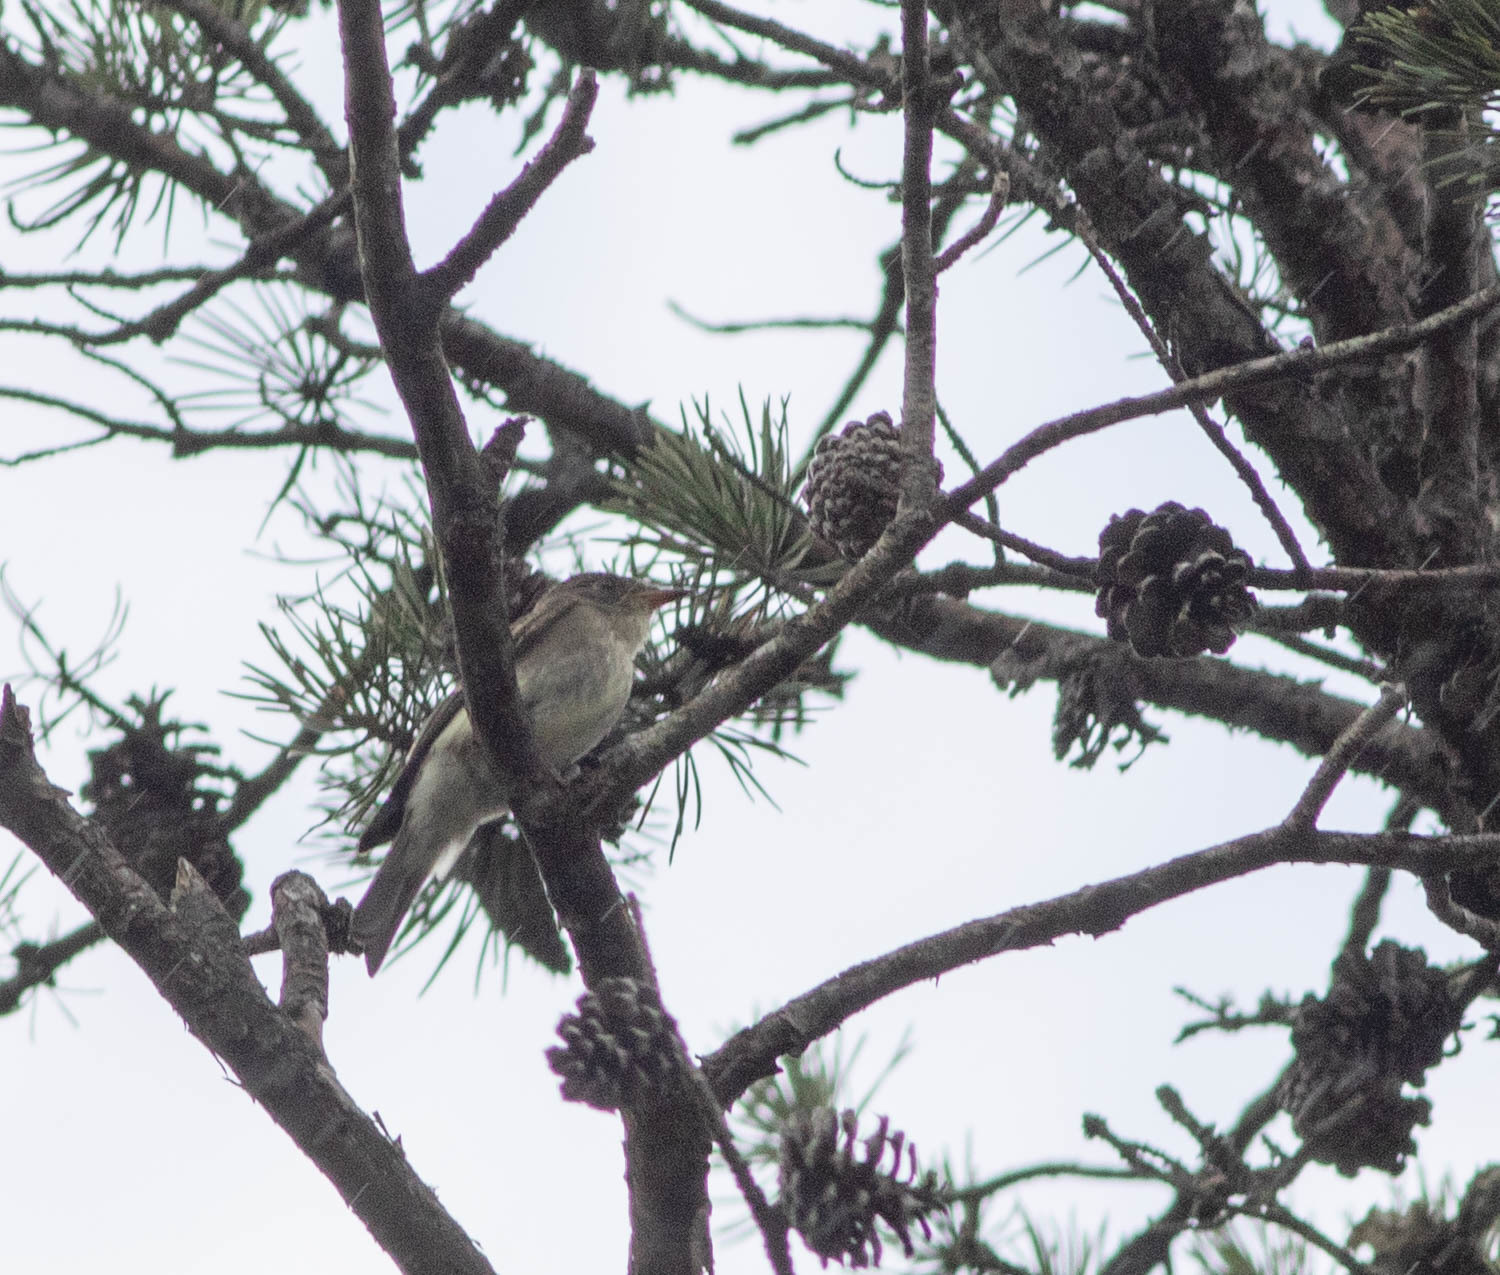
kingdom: Animalia
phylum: Chordata
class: Aves
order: Passeriformes
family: Tyrannidae
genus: Contopus
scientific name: Contopus virens
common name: Eastern wood-pewee
